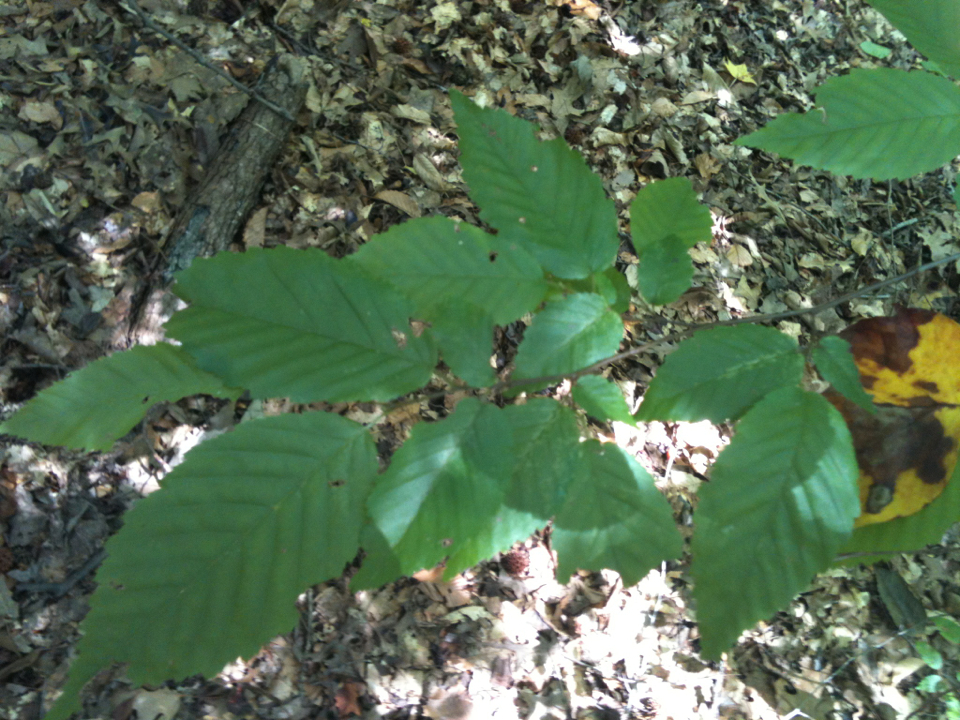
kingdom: Plantae
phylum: Tracheophyta
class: Magnoliopsida
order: Fagales
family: Betulaceae
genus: Carpinus
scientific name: Carpinus caroliniana
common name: American hornbeam
